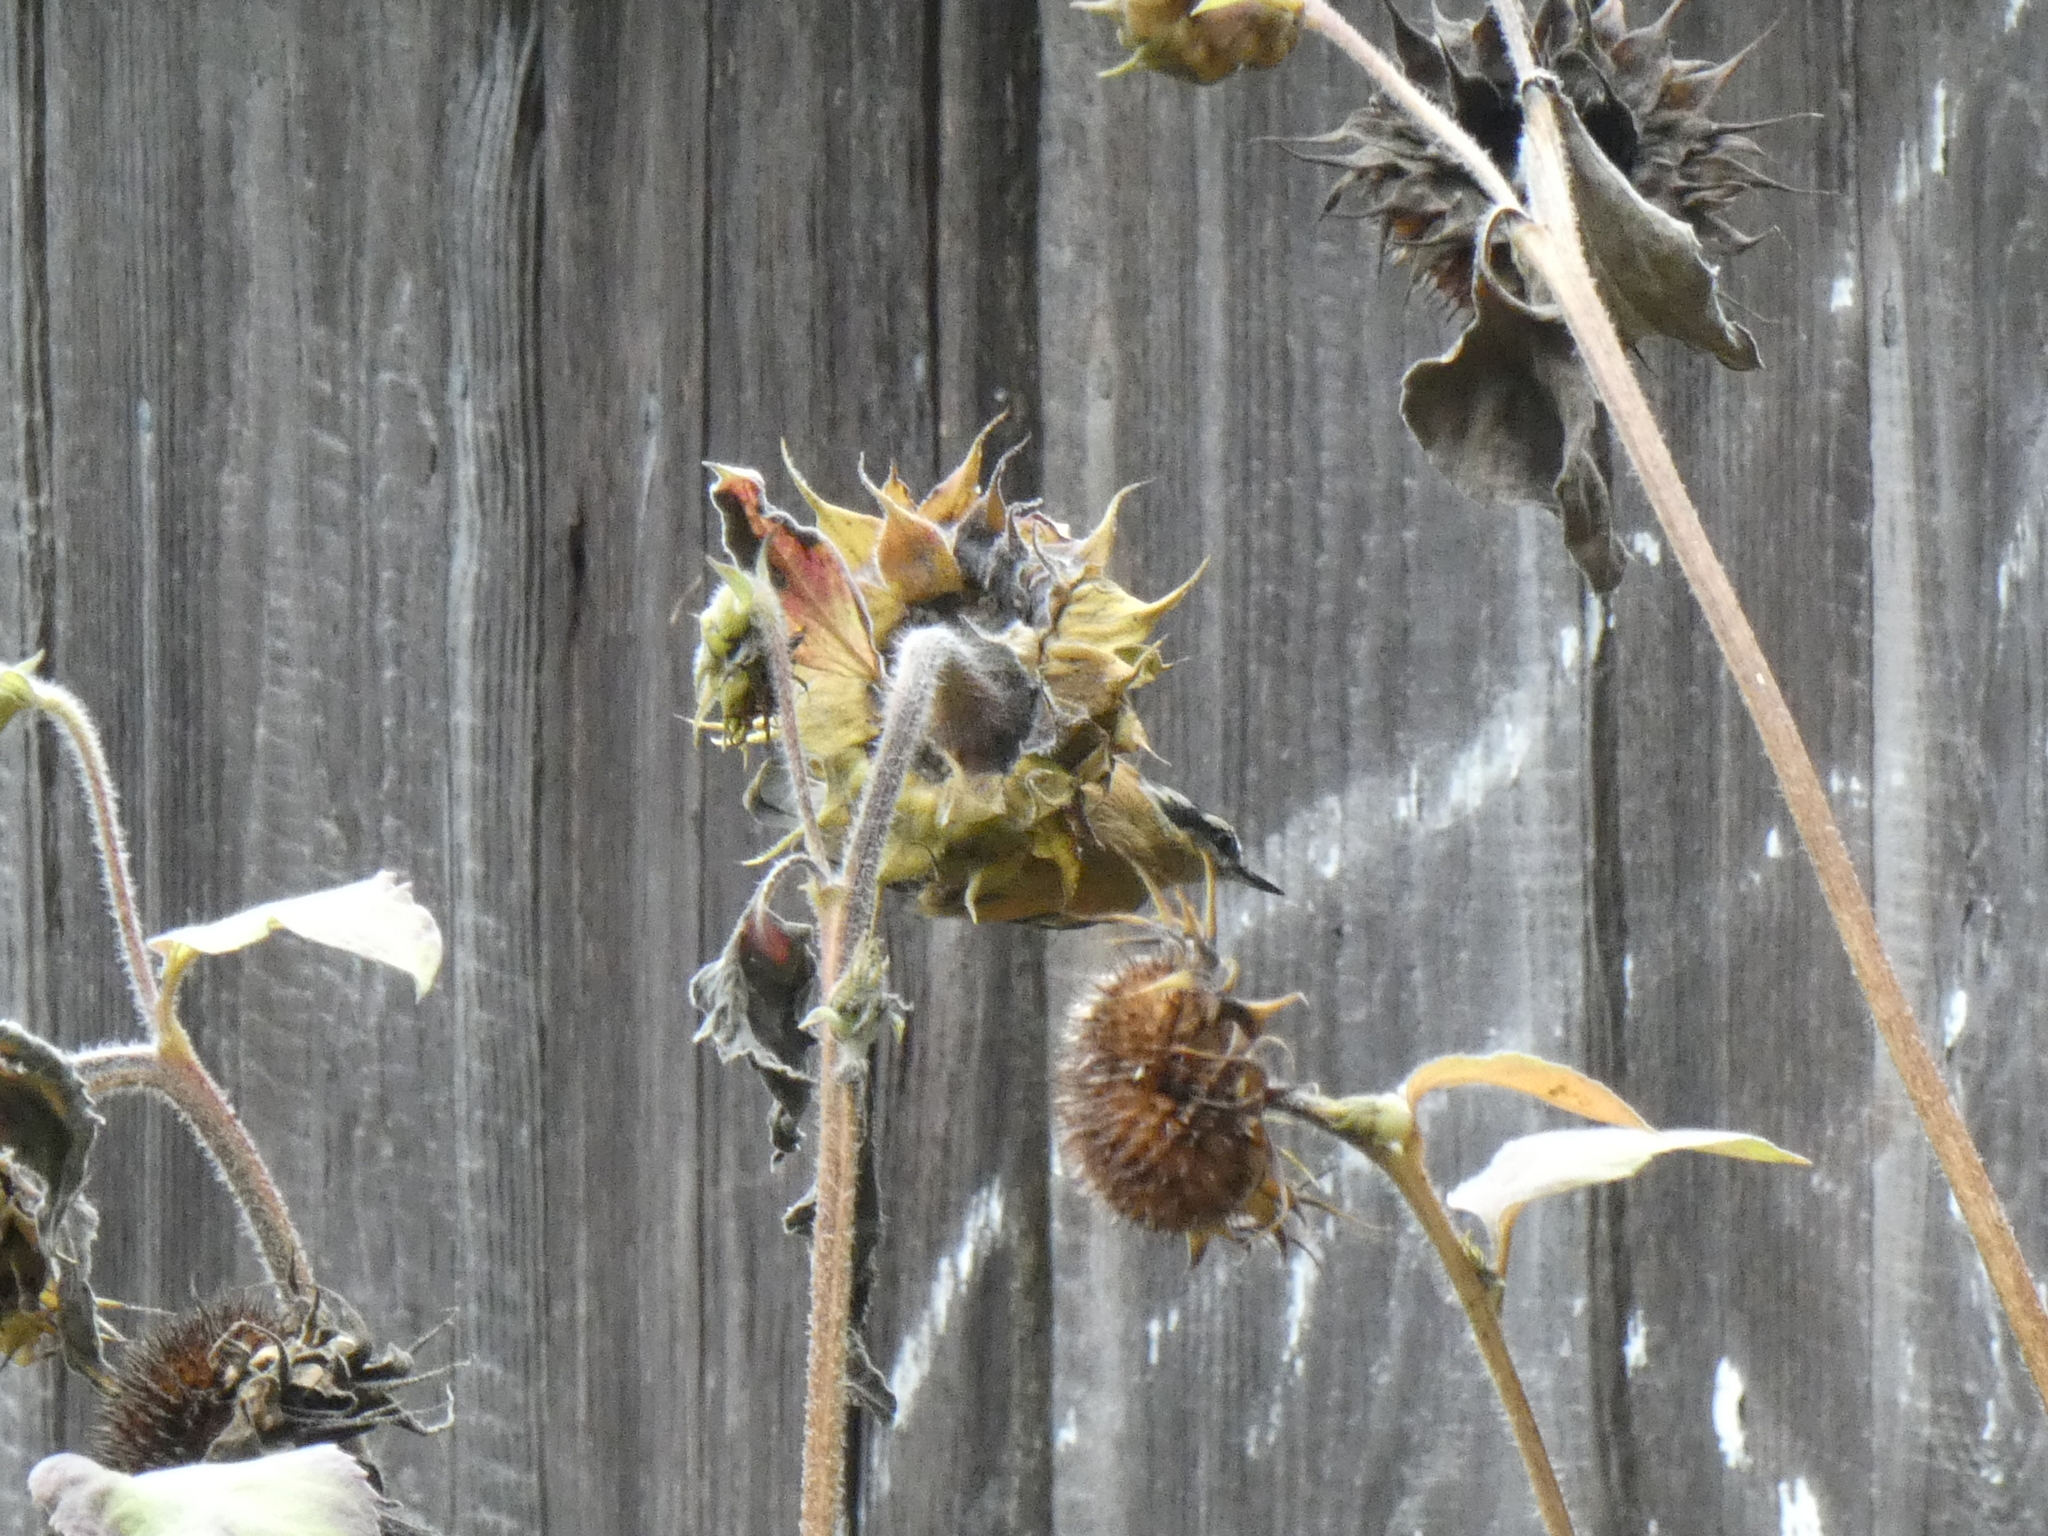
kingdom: Animalia
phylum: Chordata
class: Aves
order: Passeriformes
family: Sittidae
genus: Sitta
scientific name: Sitta canadensis
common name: Red-breasted nuthatch
